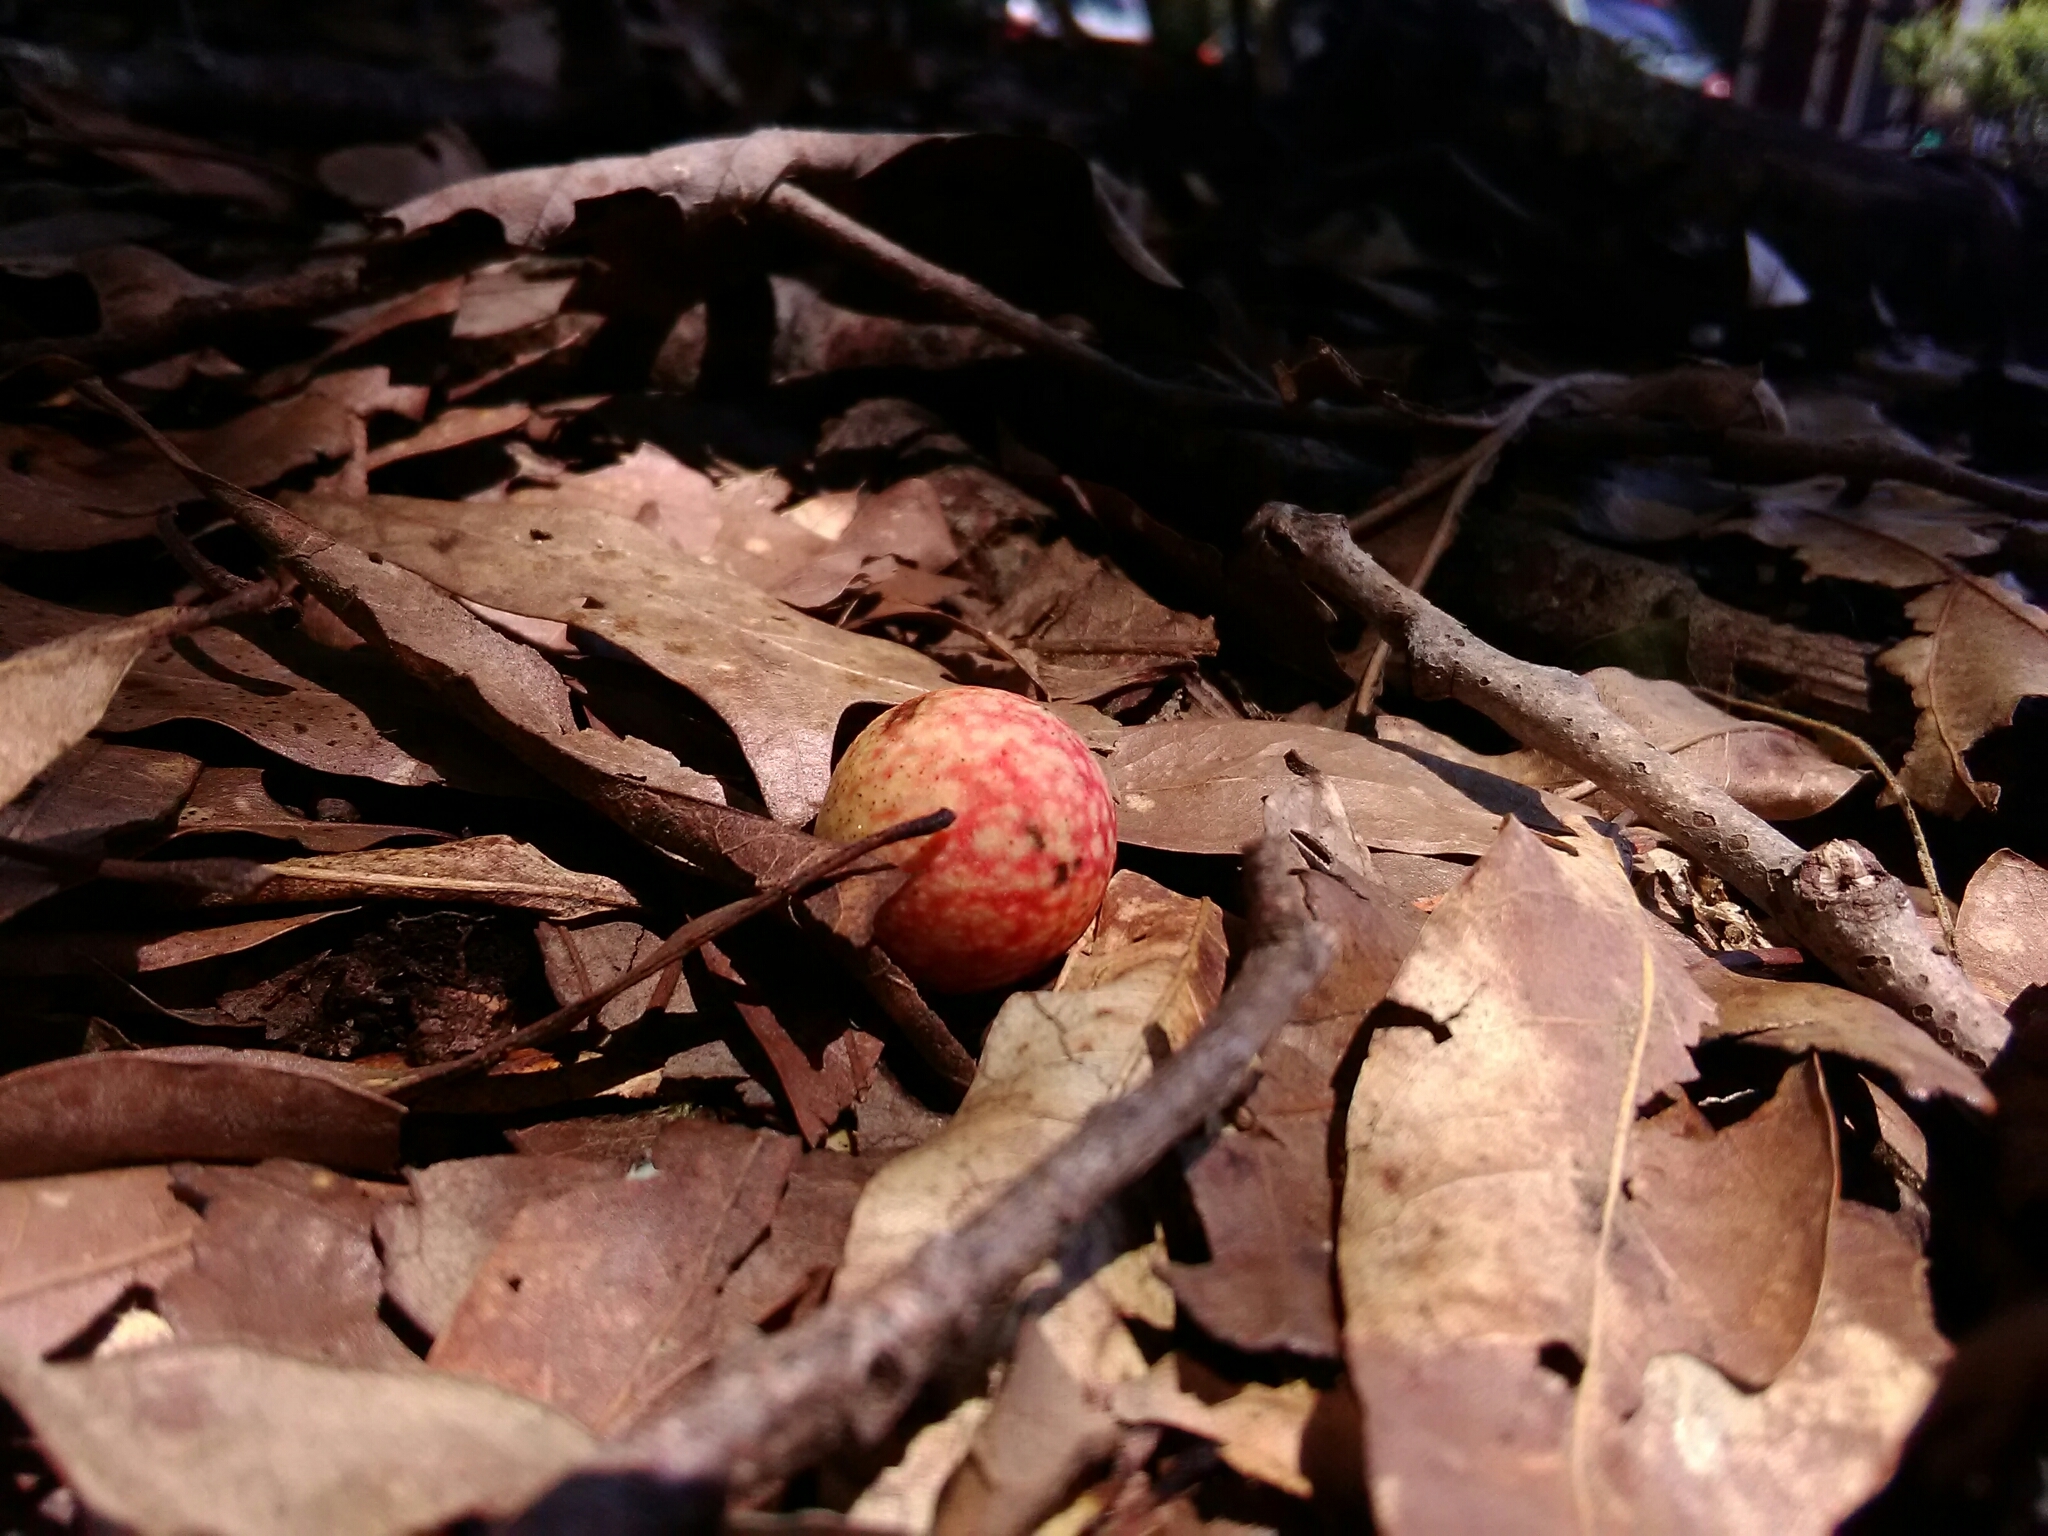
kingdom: Animalia
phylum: Arthropoda
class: Insecta
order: Hymenoptera
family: Cynipidae
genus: Amphibolips
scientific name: Amphibolips
